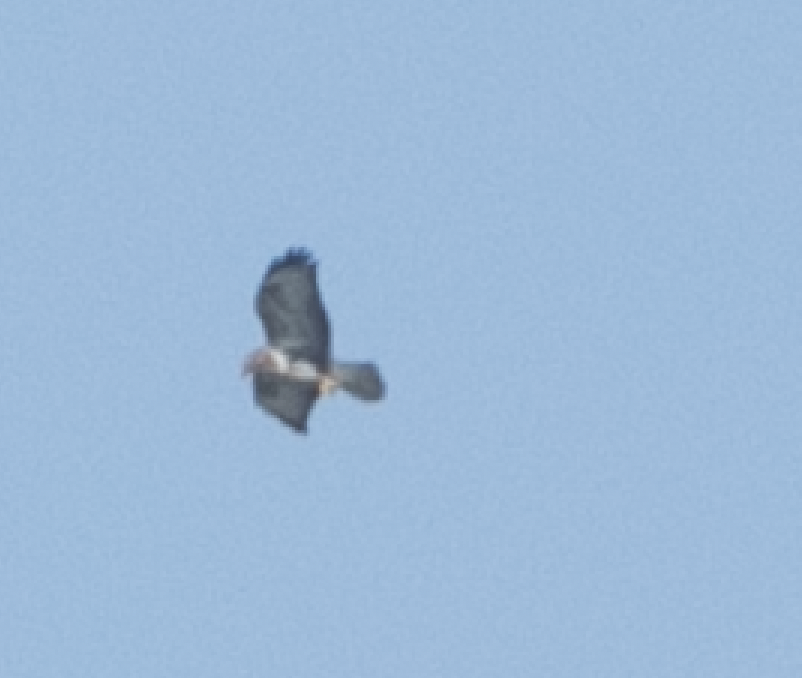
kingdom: Animalia
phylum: Chordata
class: Aves
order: Accipitriformes
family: Accipitridae
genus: Buteo
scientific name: Buteo buteo
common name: Common buzzard
